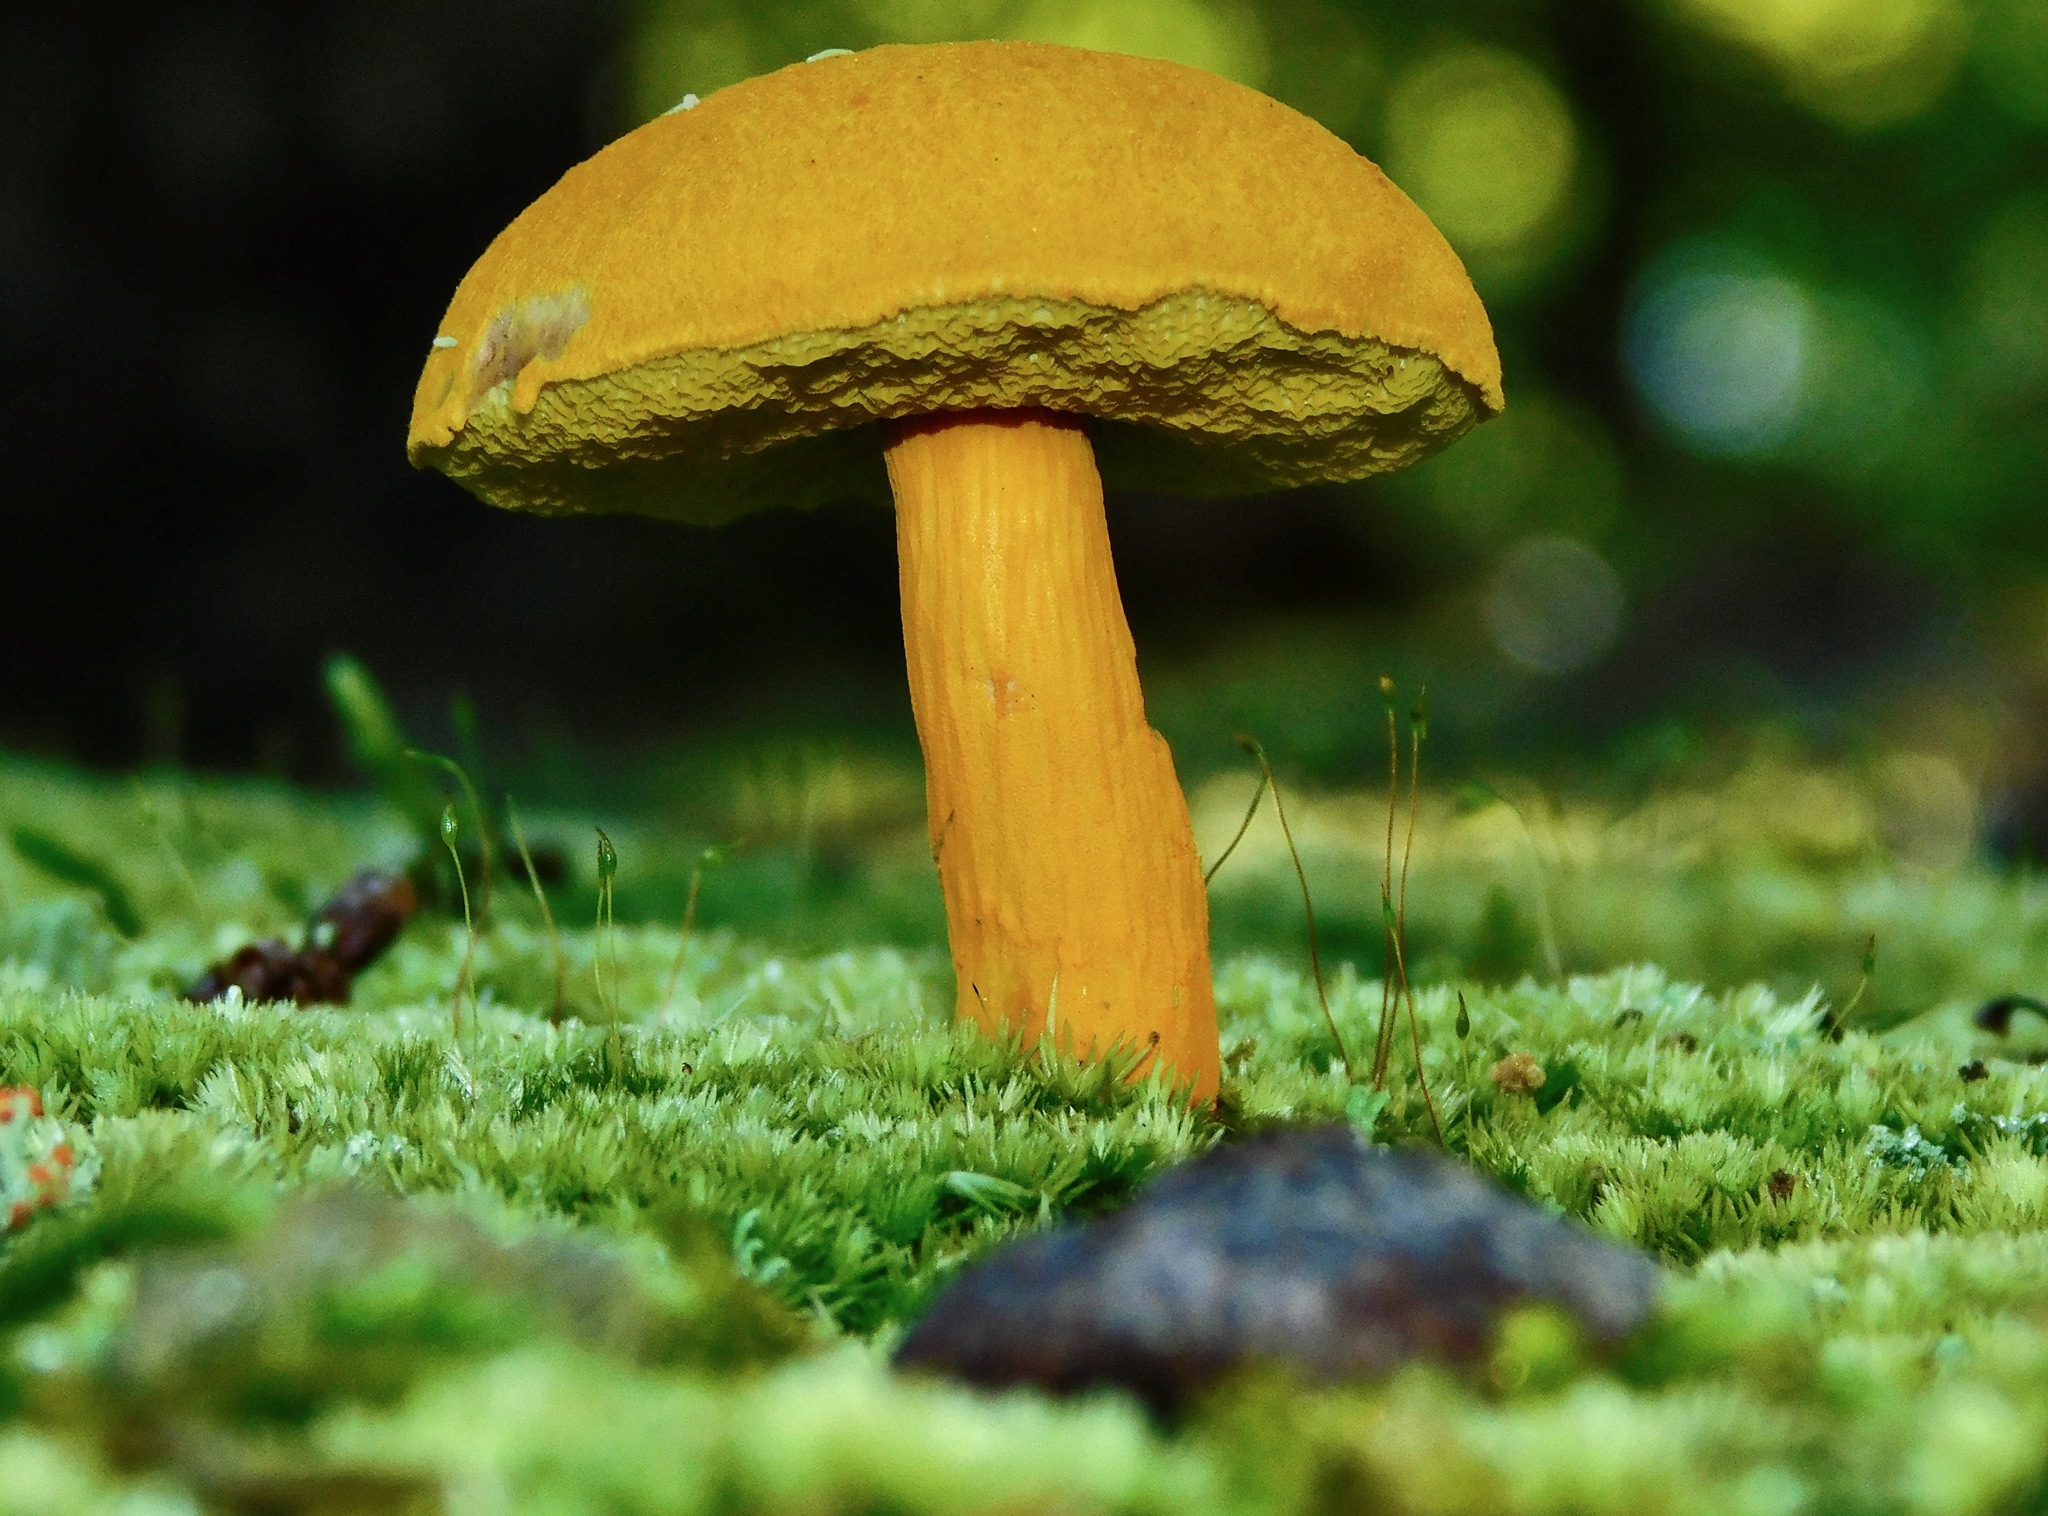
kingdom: Fungi
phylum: Basidiomycota
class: Agaricomycetes
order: Boletales
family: Boletaceae
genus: Aureoboletus
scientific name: Aureoboletus auriflammeus
